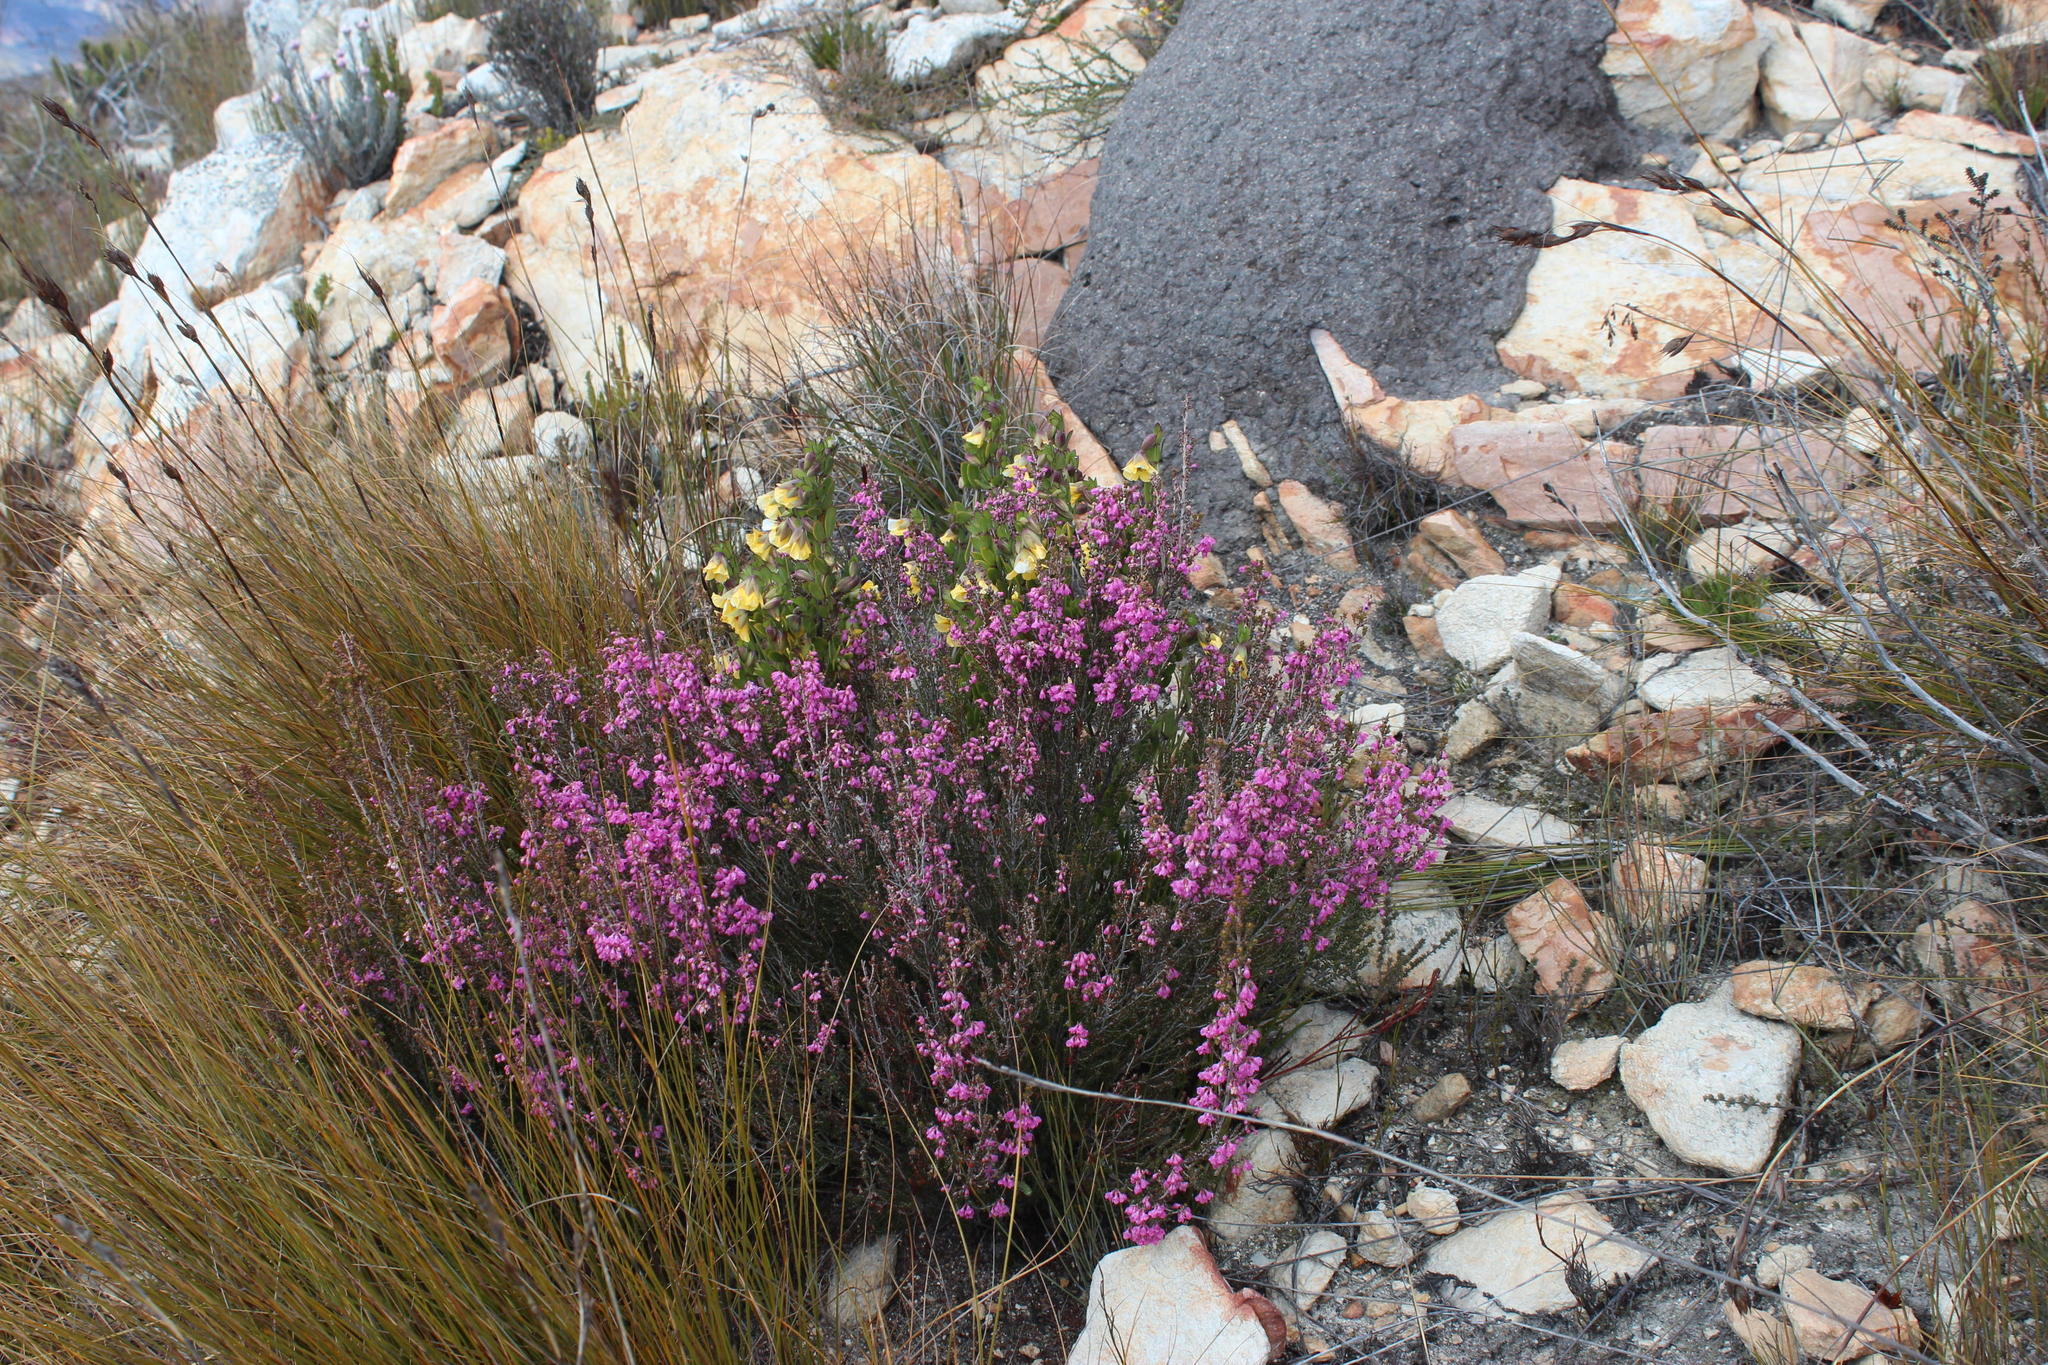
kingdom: Plantae
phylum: Tracheophyta
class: Magnoliopsida
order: Ericales
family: Ericaceae
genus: Erica
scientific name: Erica melanthera
